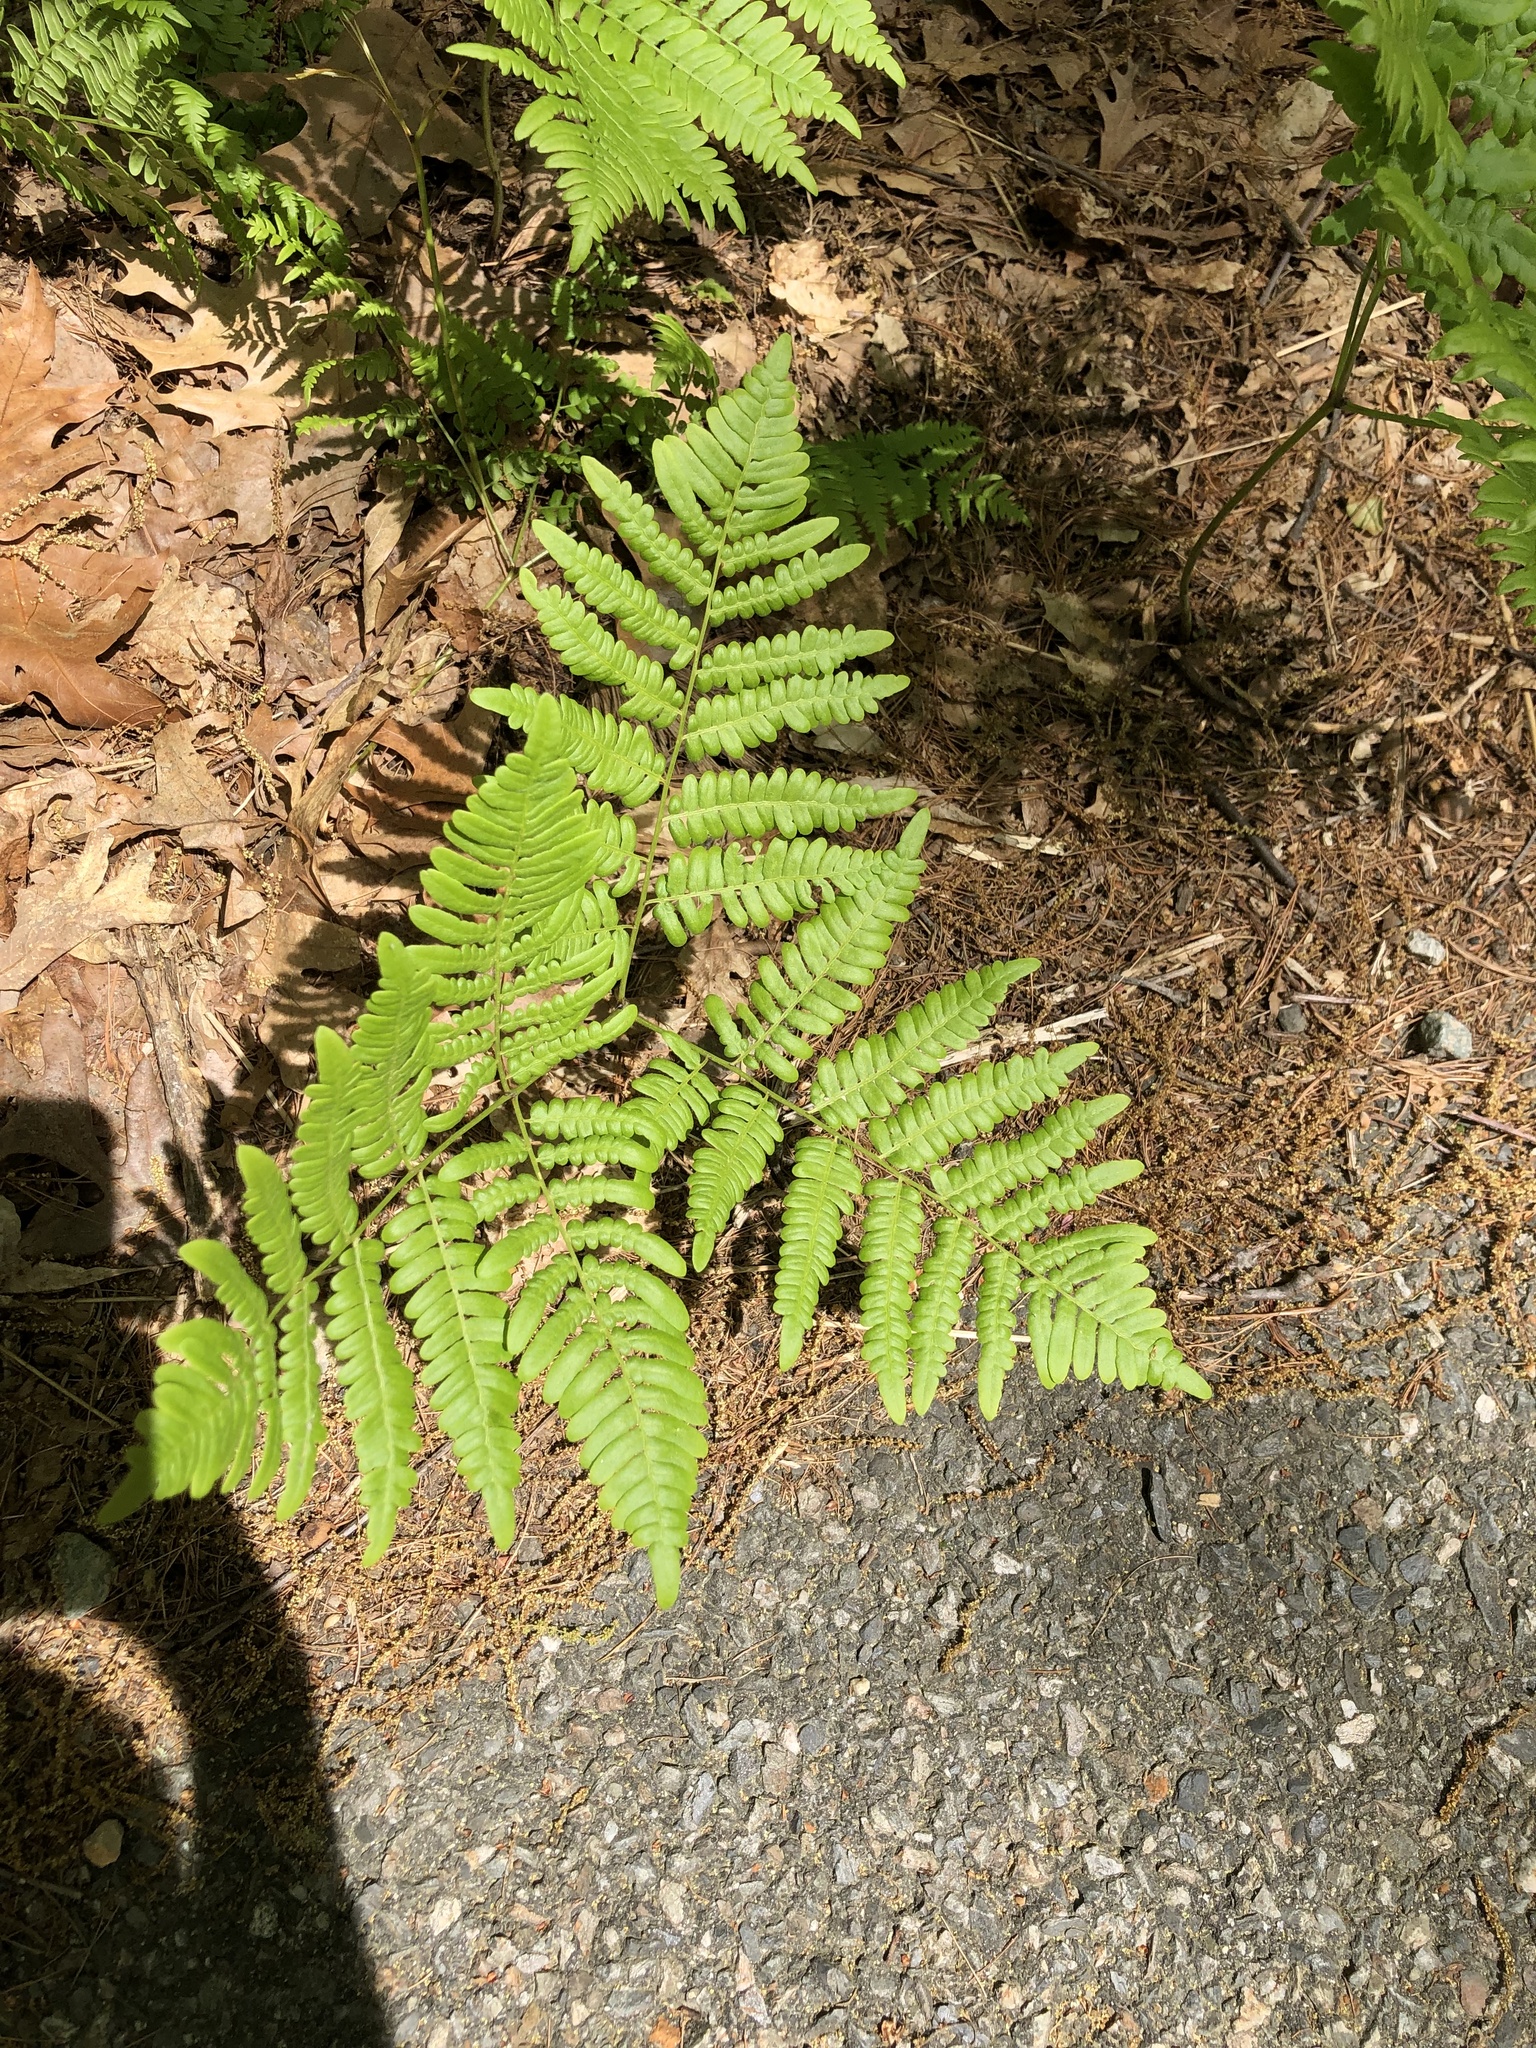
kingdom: Plantae
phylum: Tracheophyta
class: Polypodiopsida
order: Polypodiales
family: Dennstaedtiaceae
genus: Pteridium
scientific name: Pteridium aquilinum
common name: Bracken
